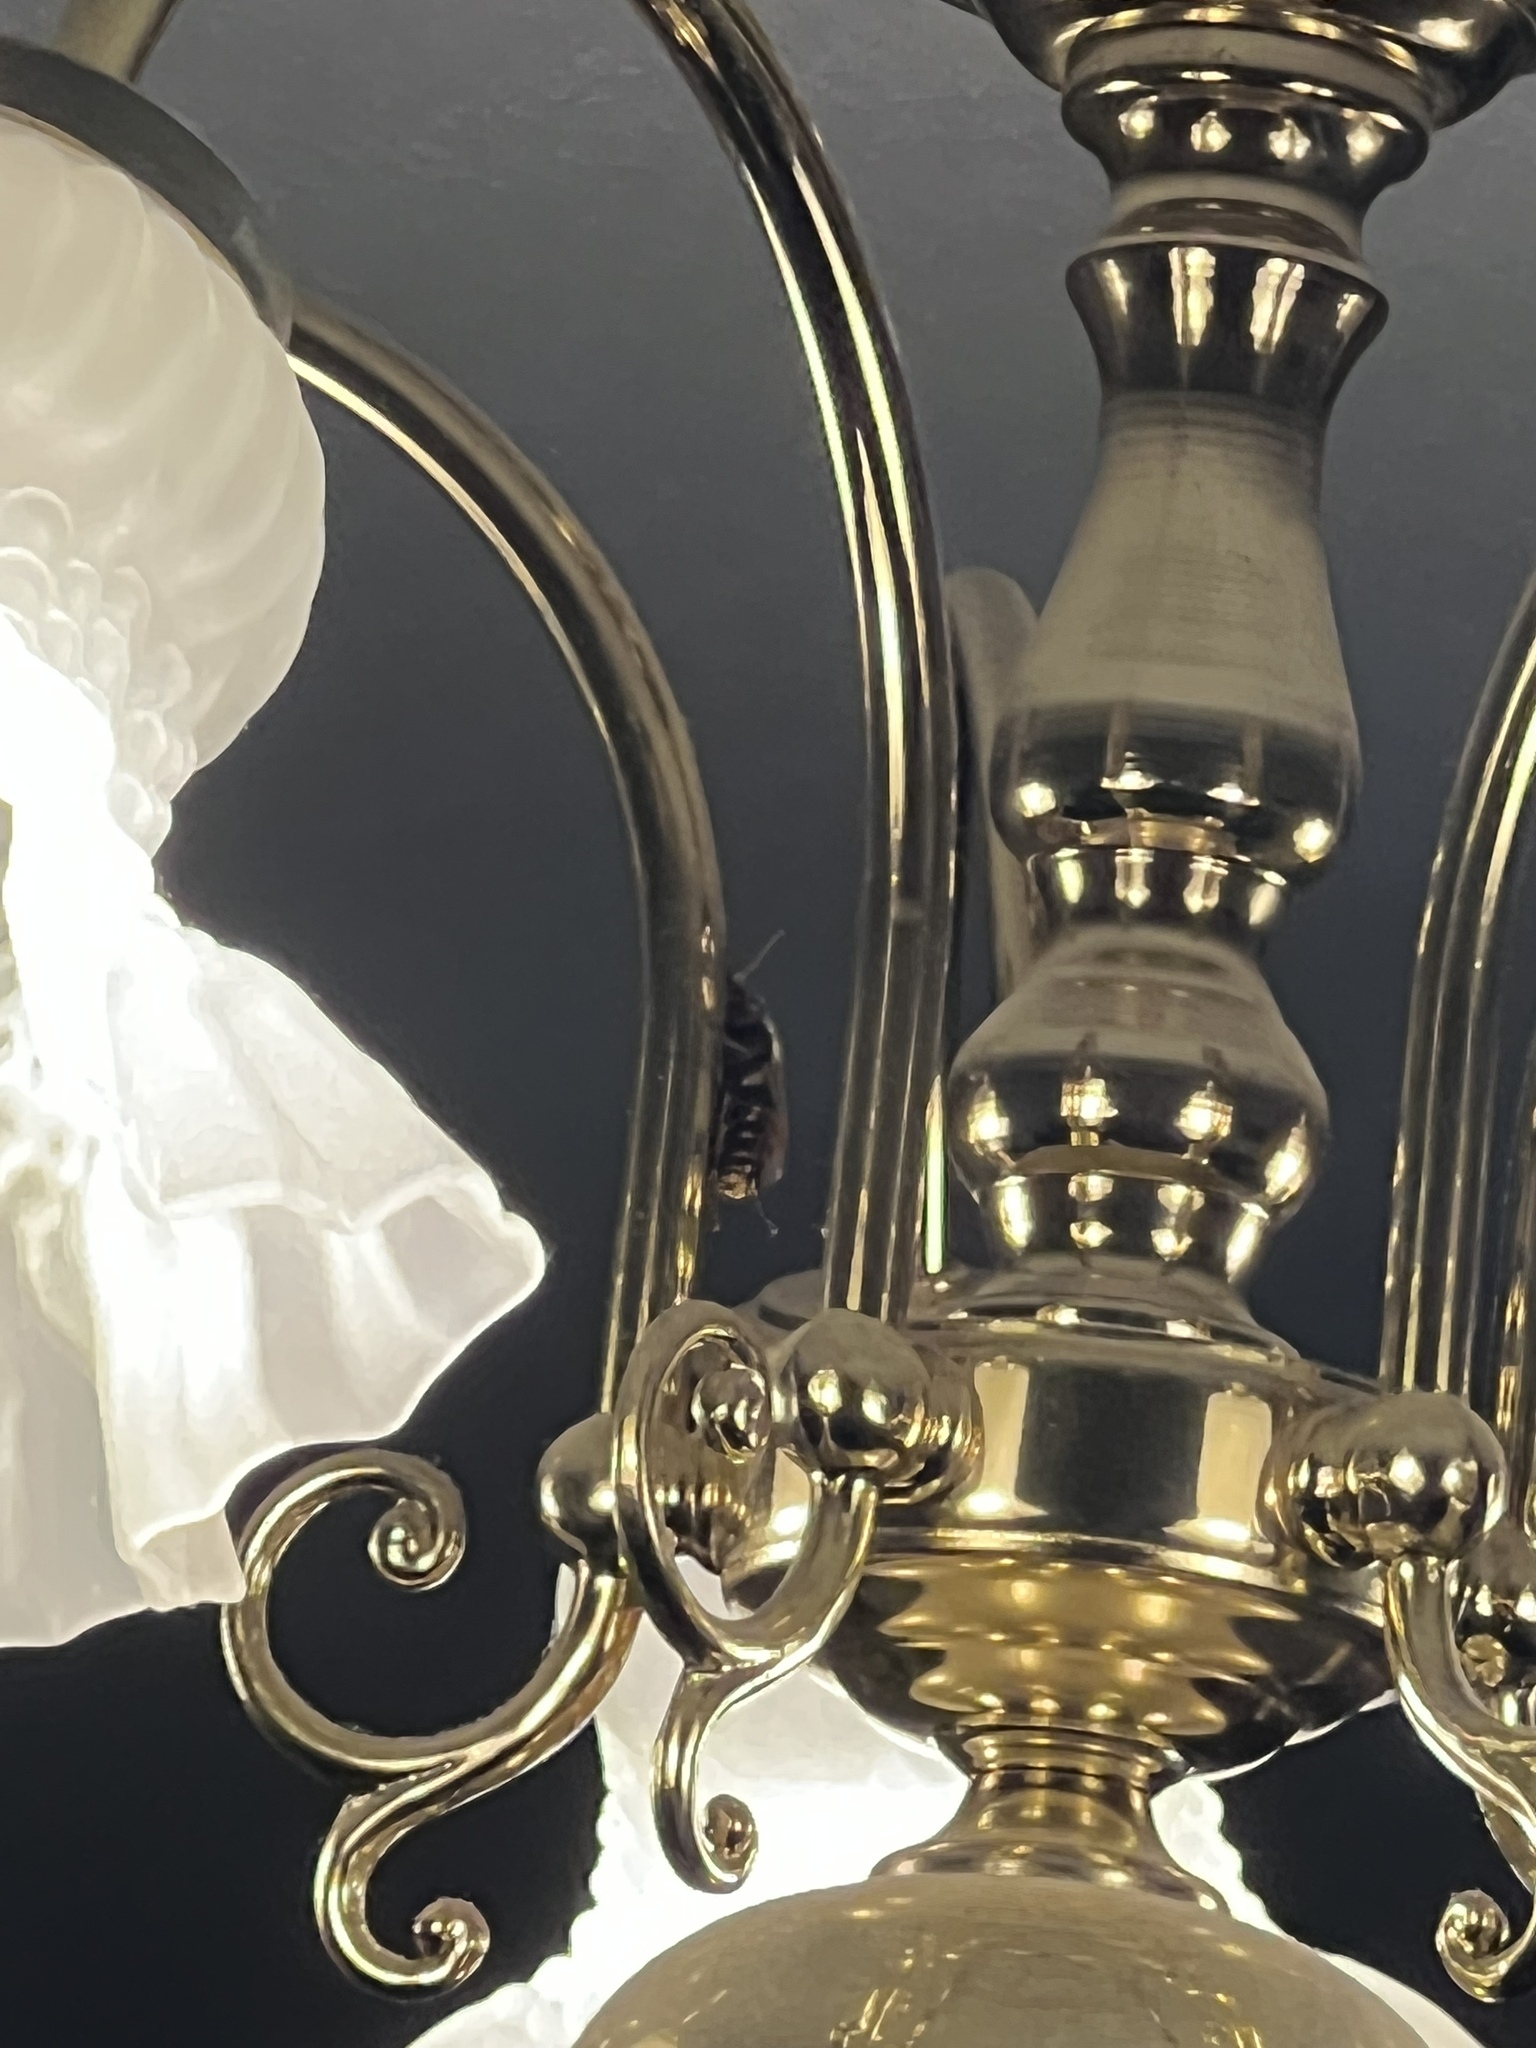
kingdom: Animalia
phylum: Arthropoda
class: Insecta
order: Hymenoptera
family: Vespidae
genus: Vespa
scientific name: Vespa crabro
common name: Hornet
